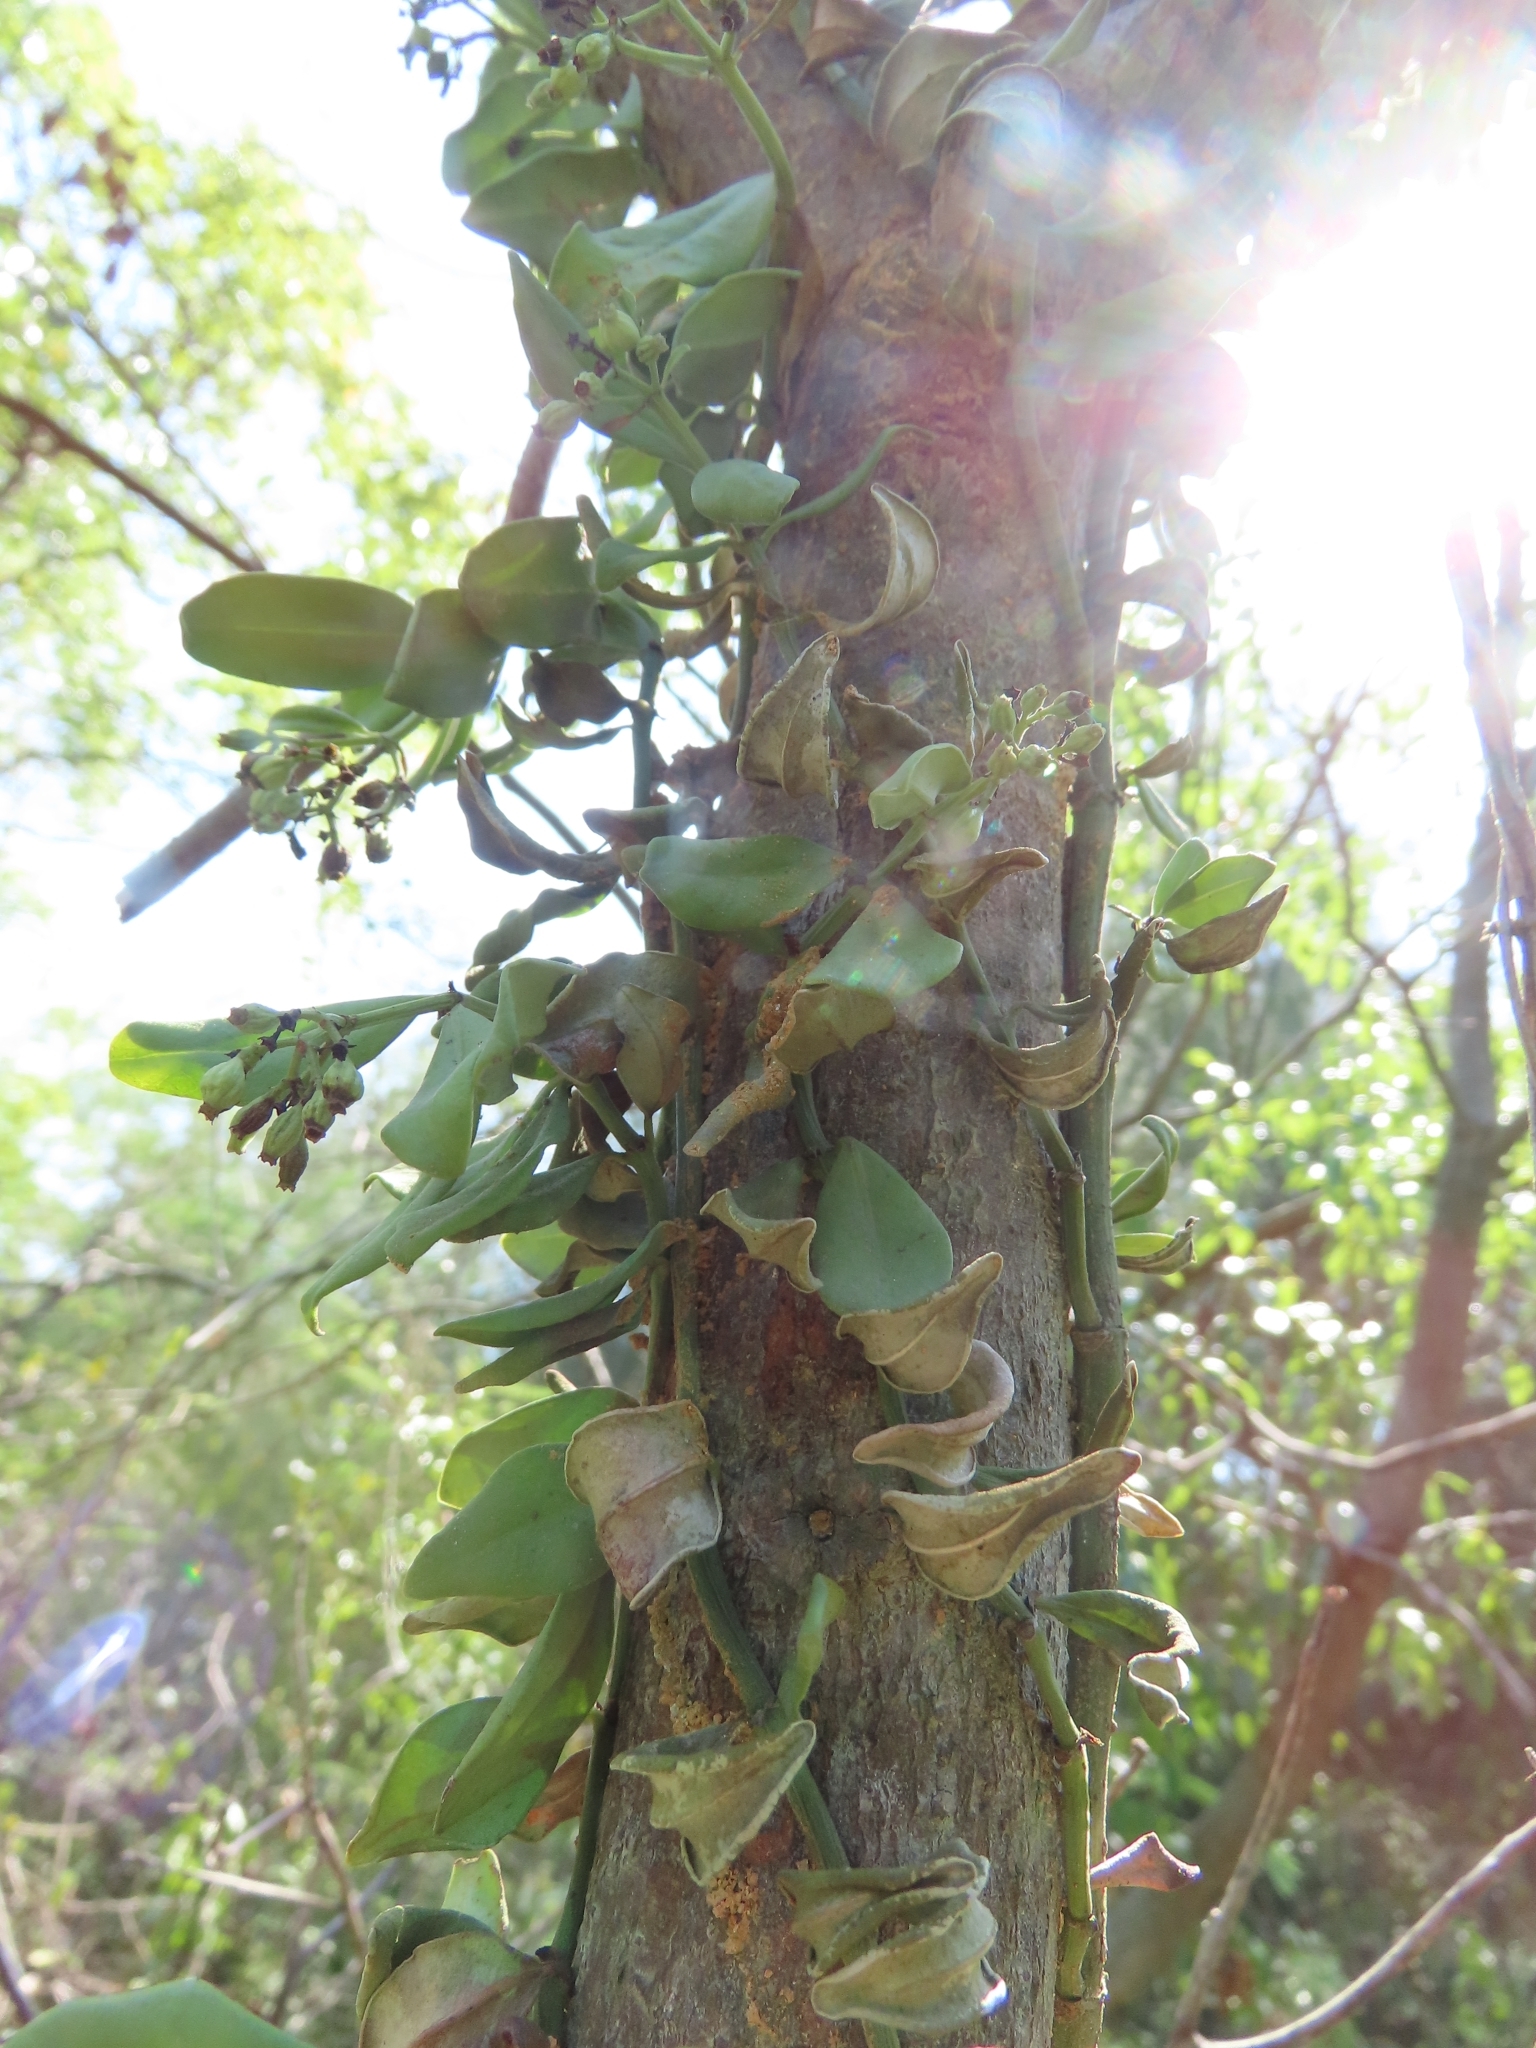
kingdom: Plantae
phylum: Tracheophyta
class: Magnoliopsida
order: Gentianales
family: Rubiaceae
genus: Psychotria
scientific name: Psychotria serpens
